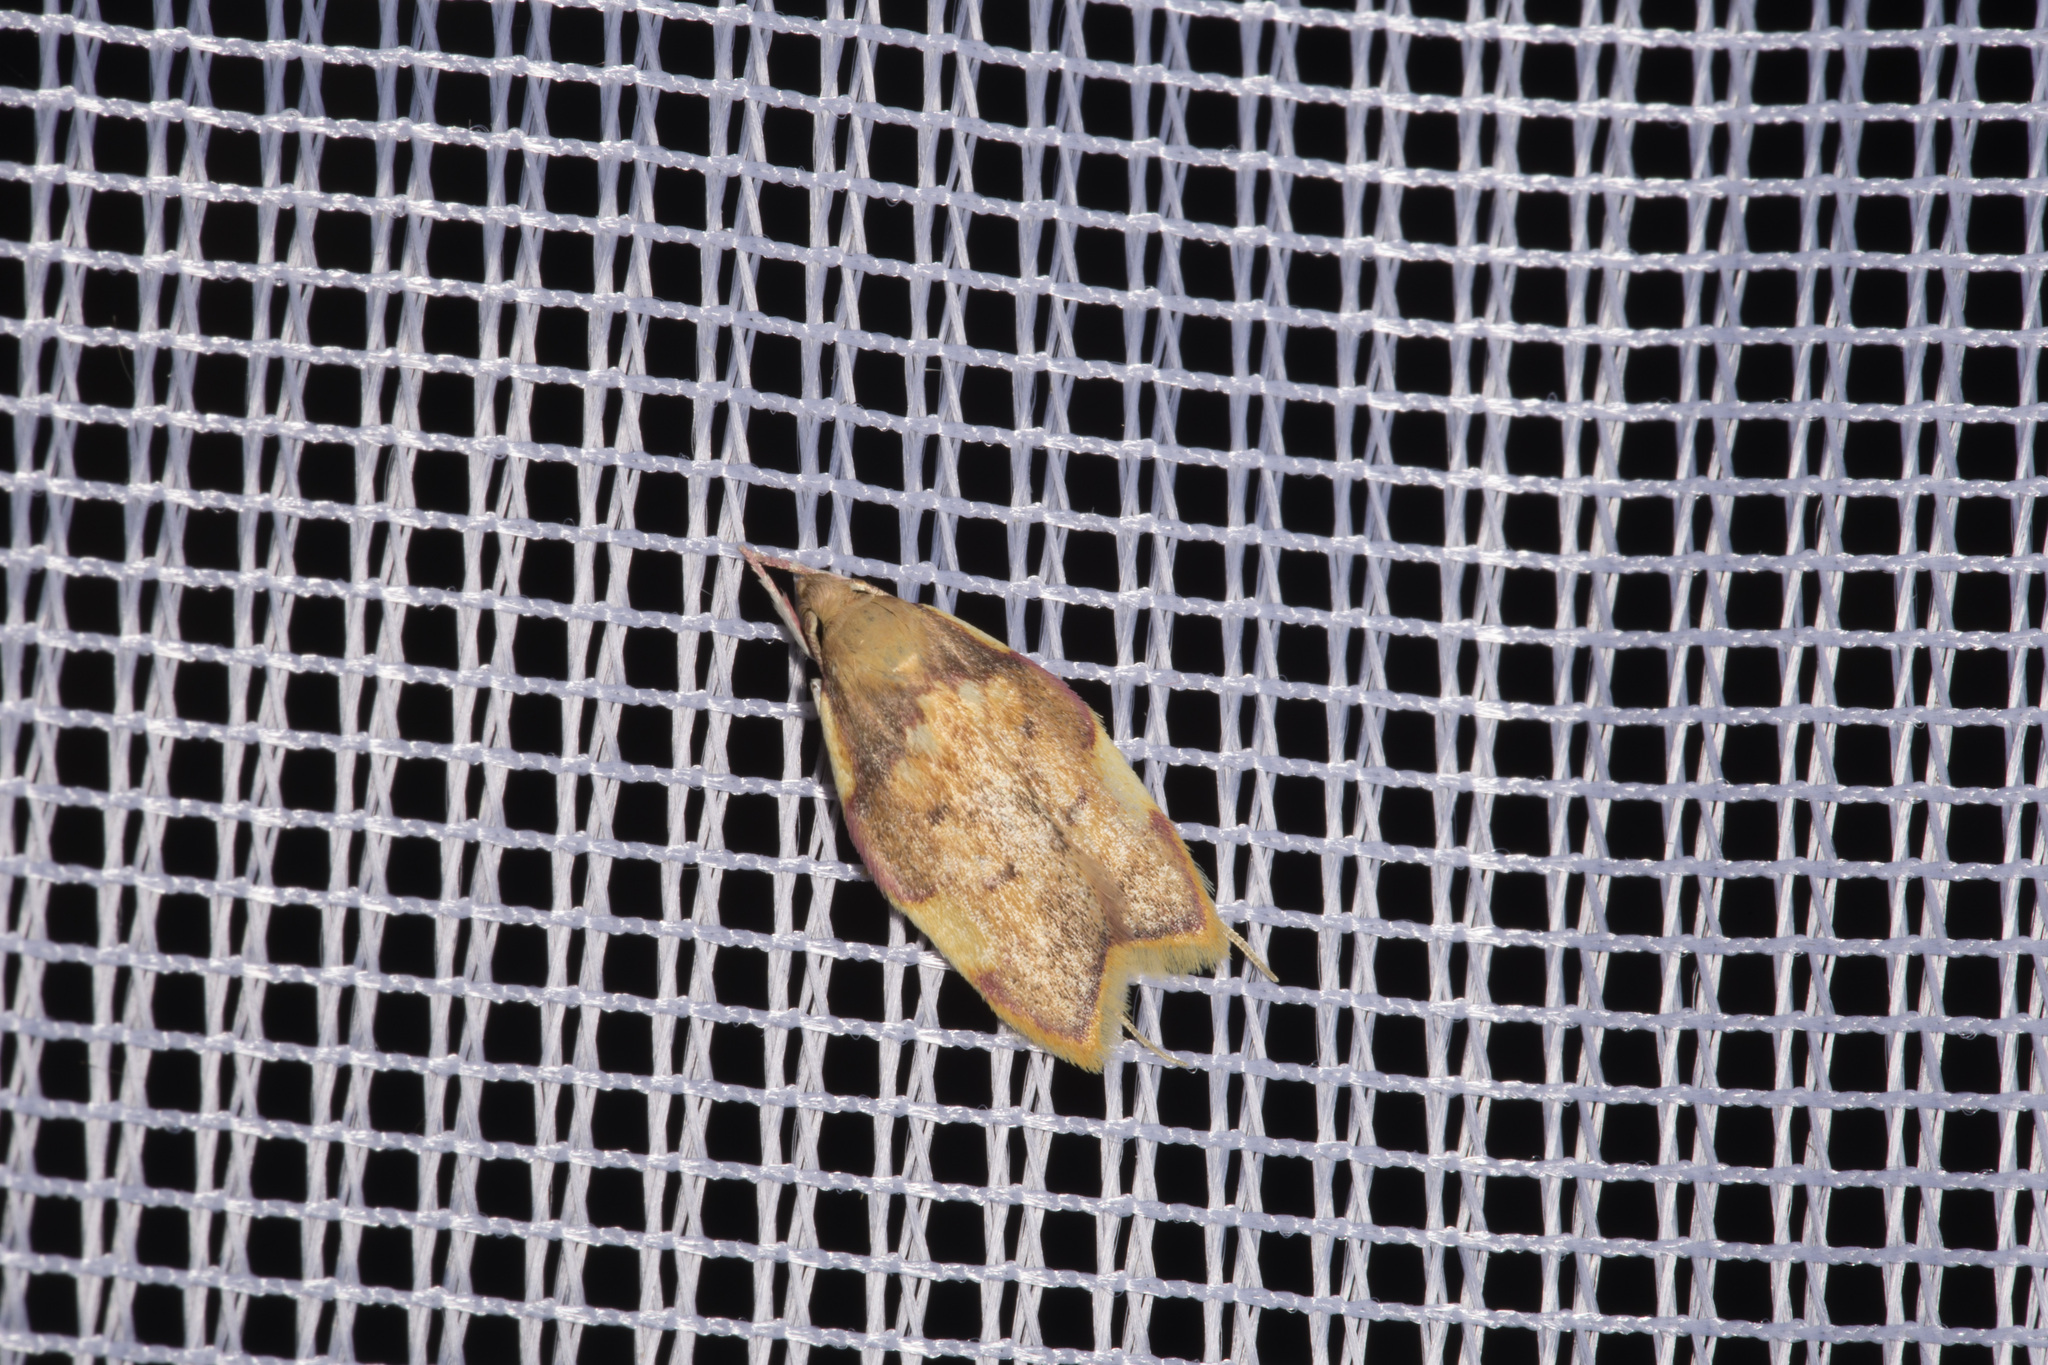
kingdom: Animalia
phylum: Arthropoda
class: Insecta
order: Lepidoptera
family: Peleopodidae
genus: Carcina
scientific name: Carcina quercana
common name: Moth
